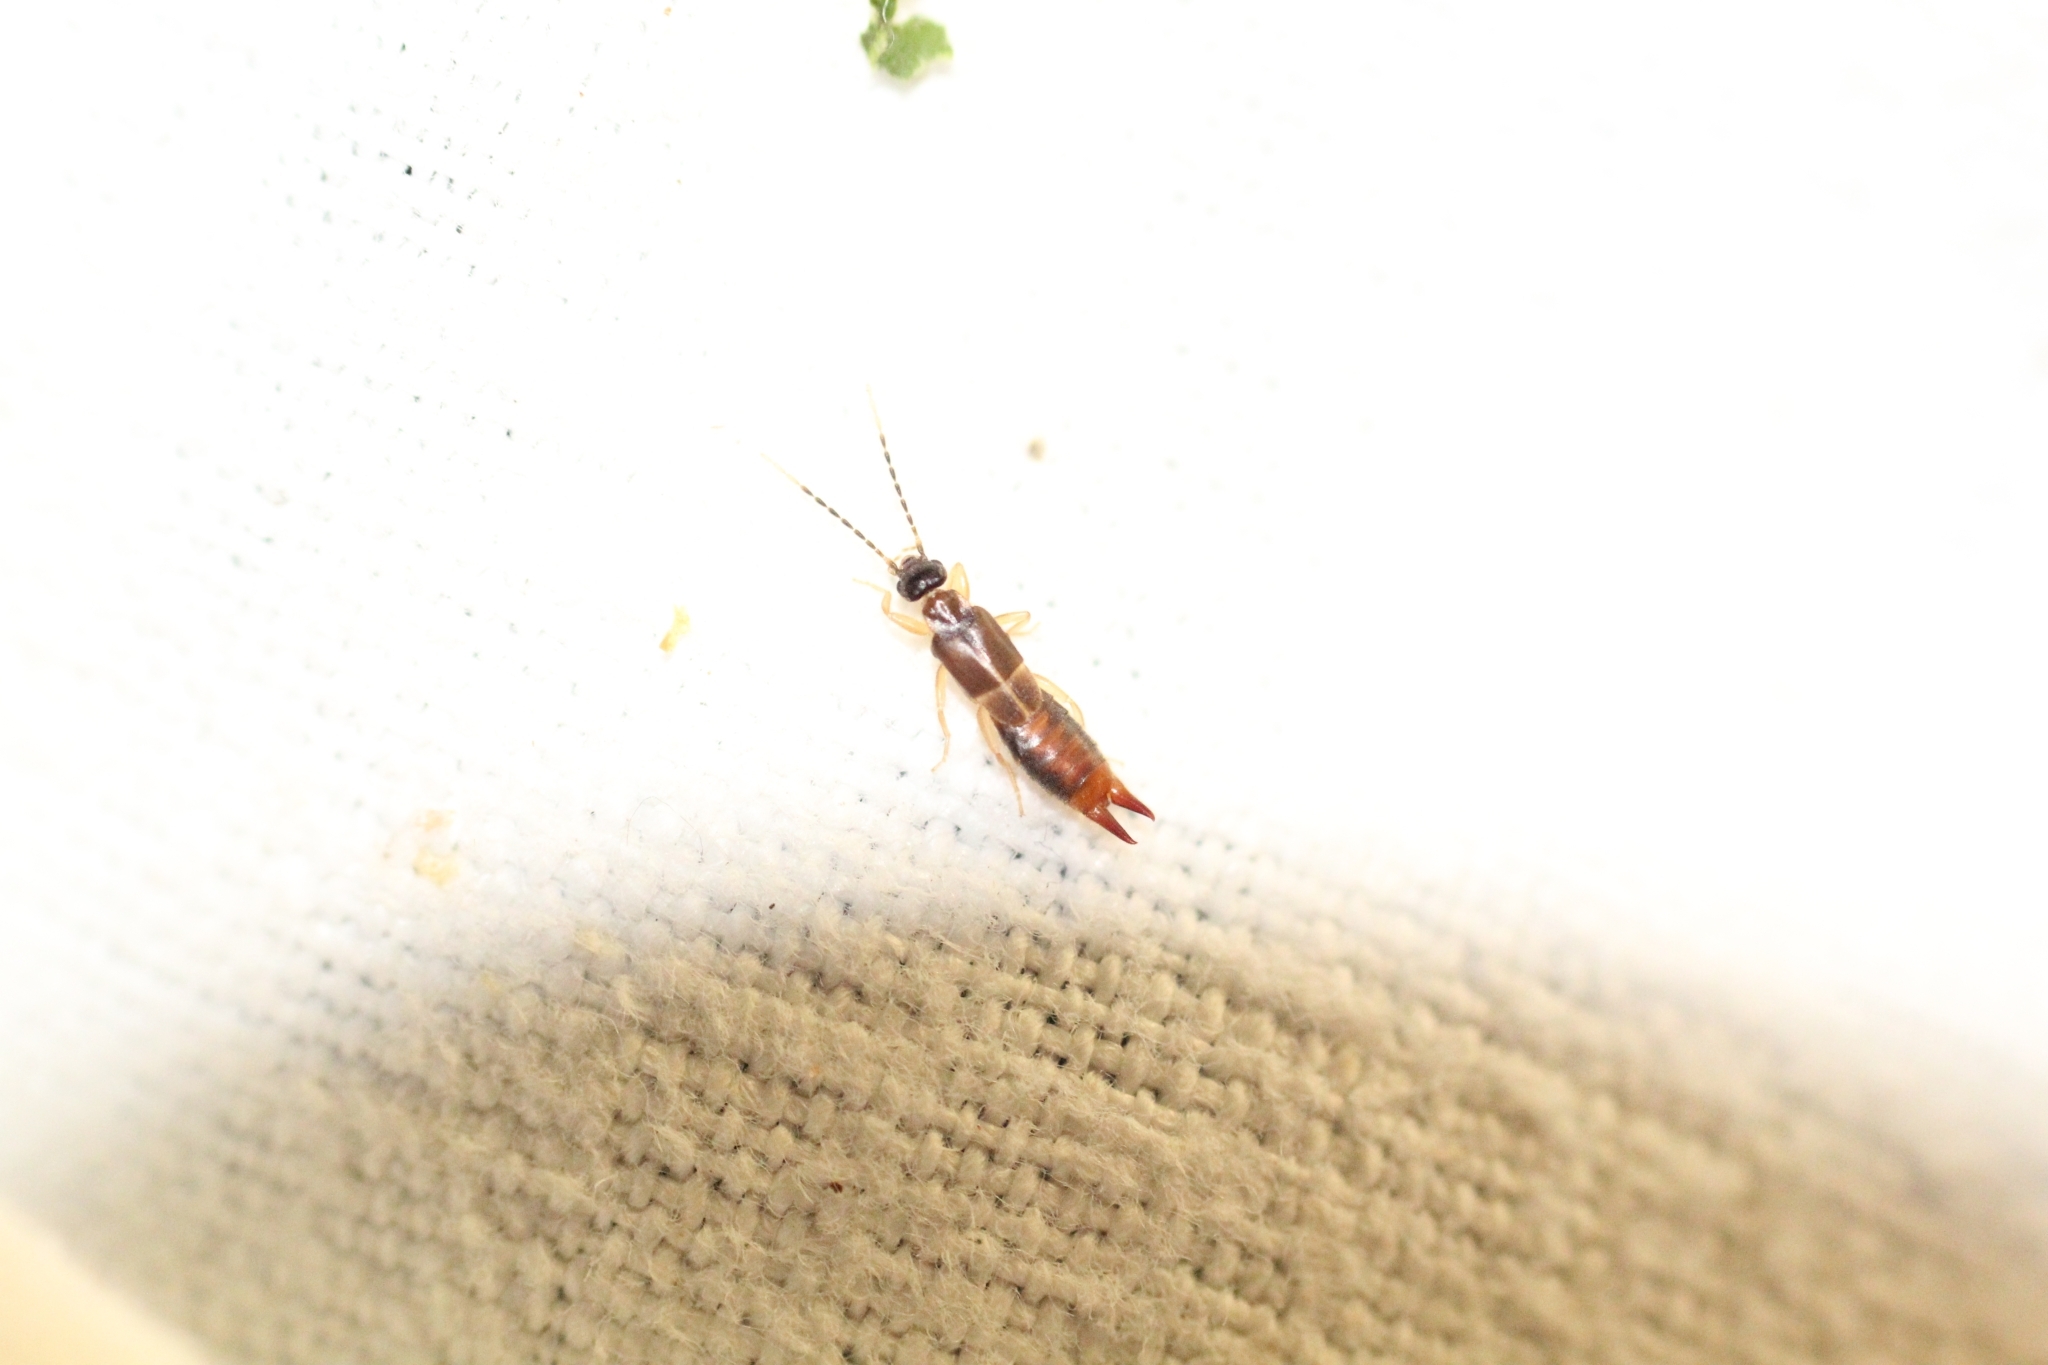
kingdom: Animalia
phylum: Arthropoda
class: Insecta
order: Dermaptera
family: Spongiphoridae
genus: Labia
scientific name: Labia minor
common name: Lesser earwig
